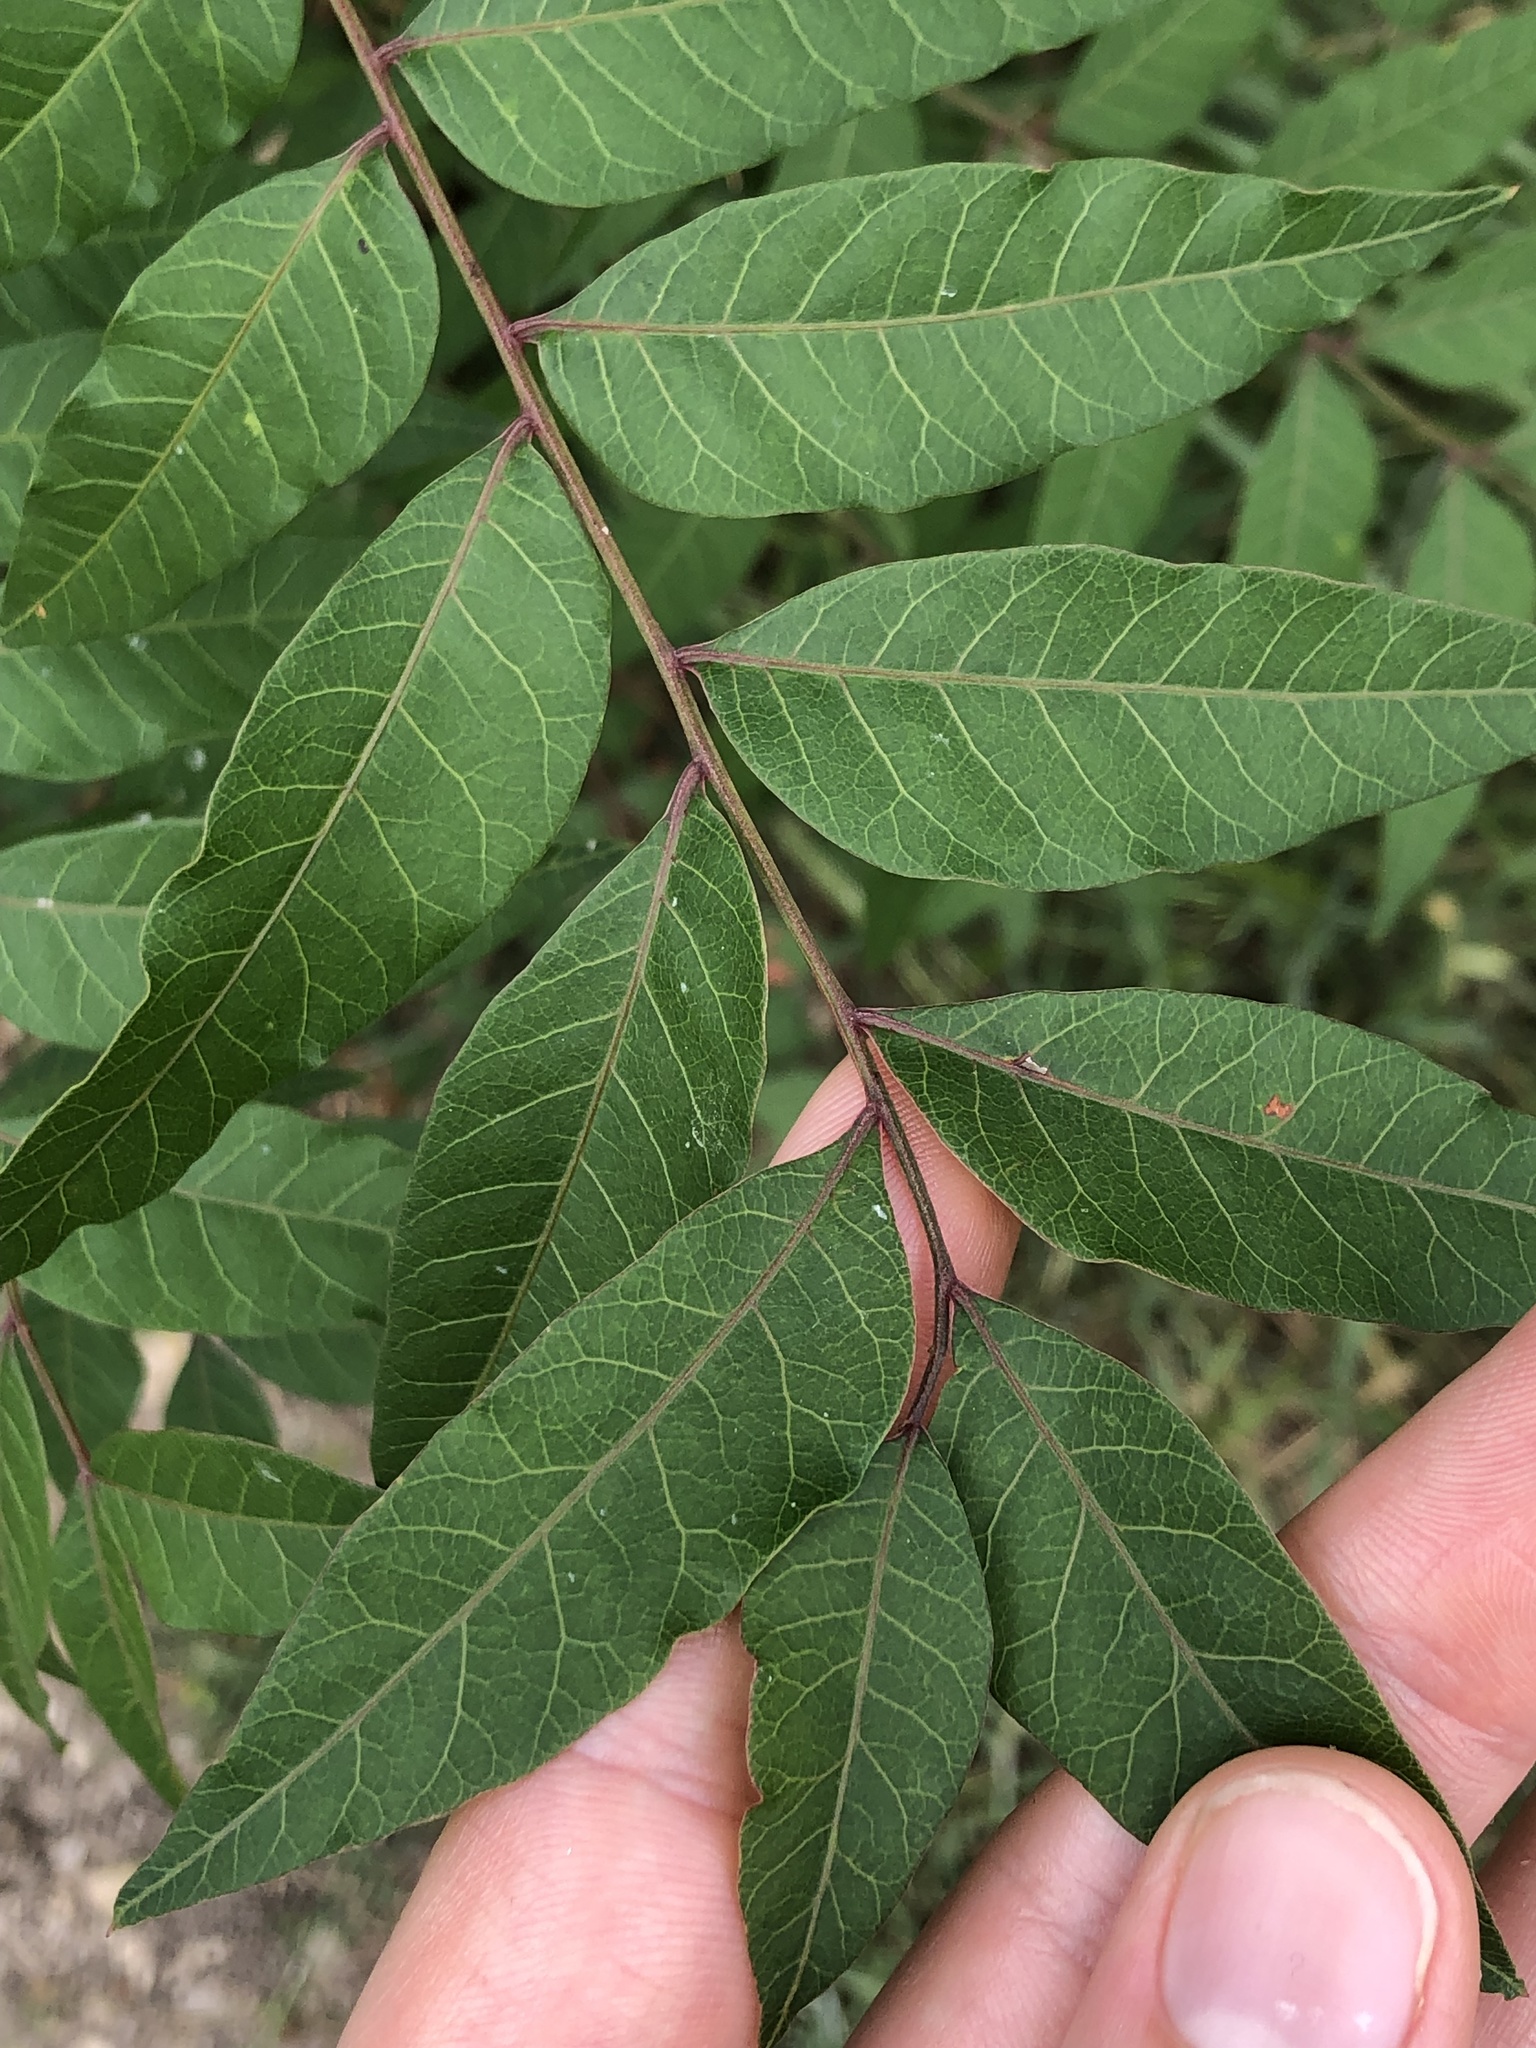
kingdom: Plantae
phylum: Tracheophyta
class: Magnoliopsida
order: Sapindales
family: Anacardiaceae
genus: Pistacia
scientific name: Pistacia chinensis
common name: Chinese pistache
